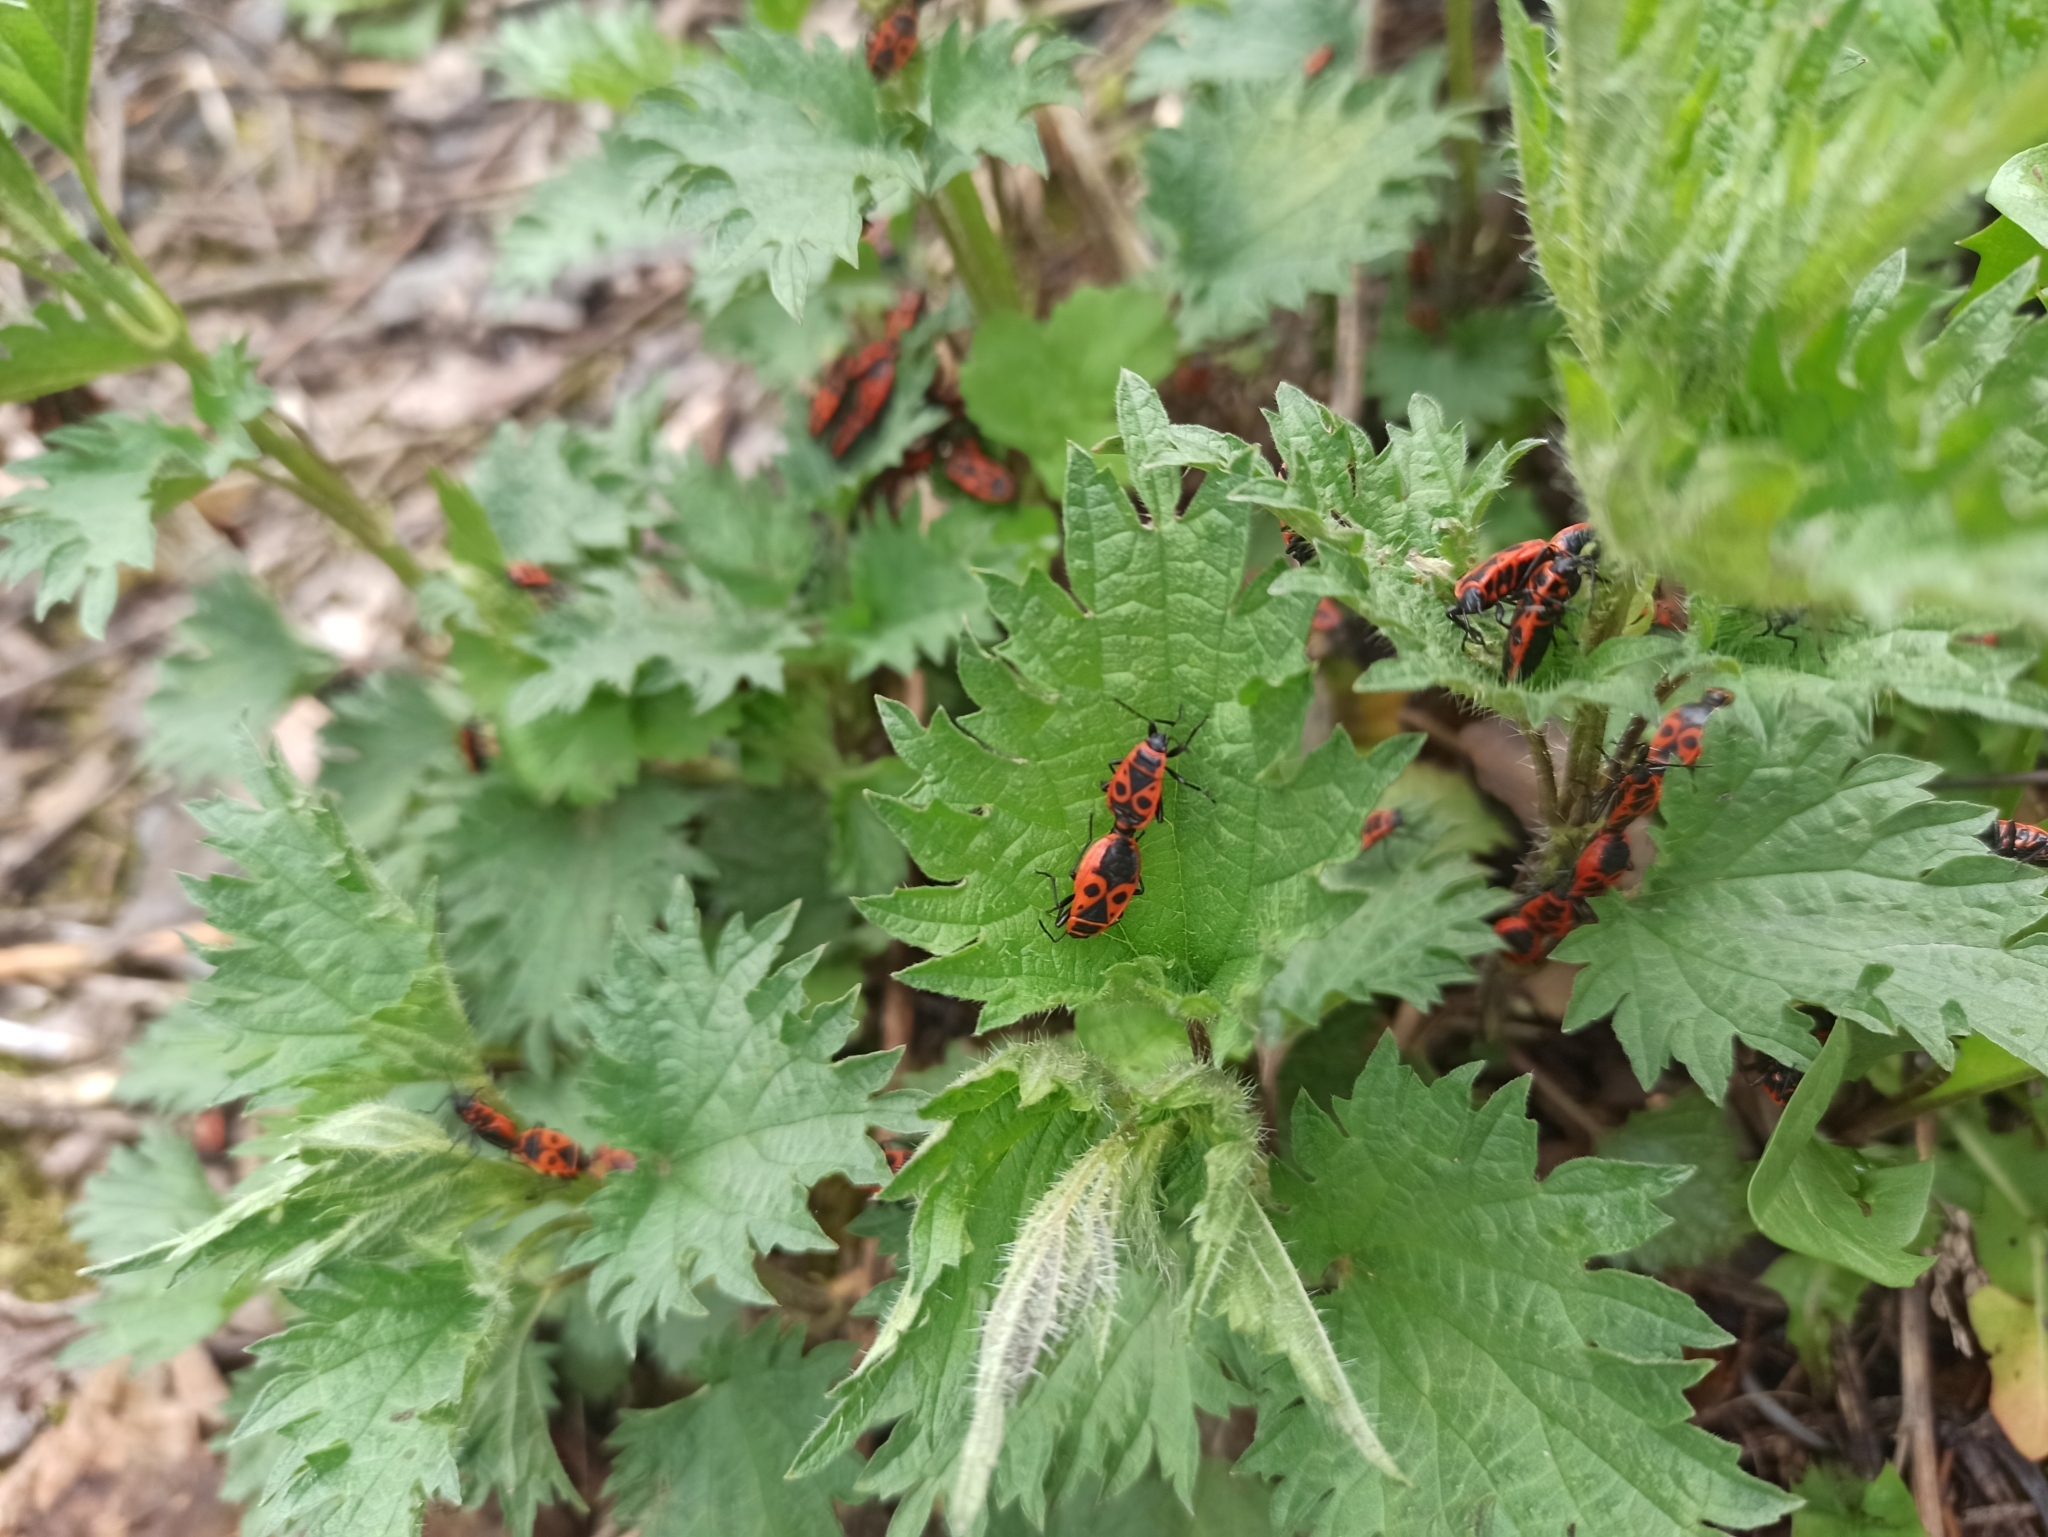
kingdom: Animalia
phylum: Arthropoda
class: Insecta
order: Hemiptera
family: Pyrrhocoridae
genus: Pyrrhocoris
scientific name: Pyrrhocoris apterus
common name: Firebug
